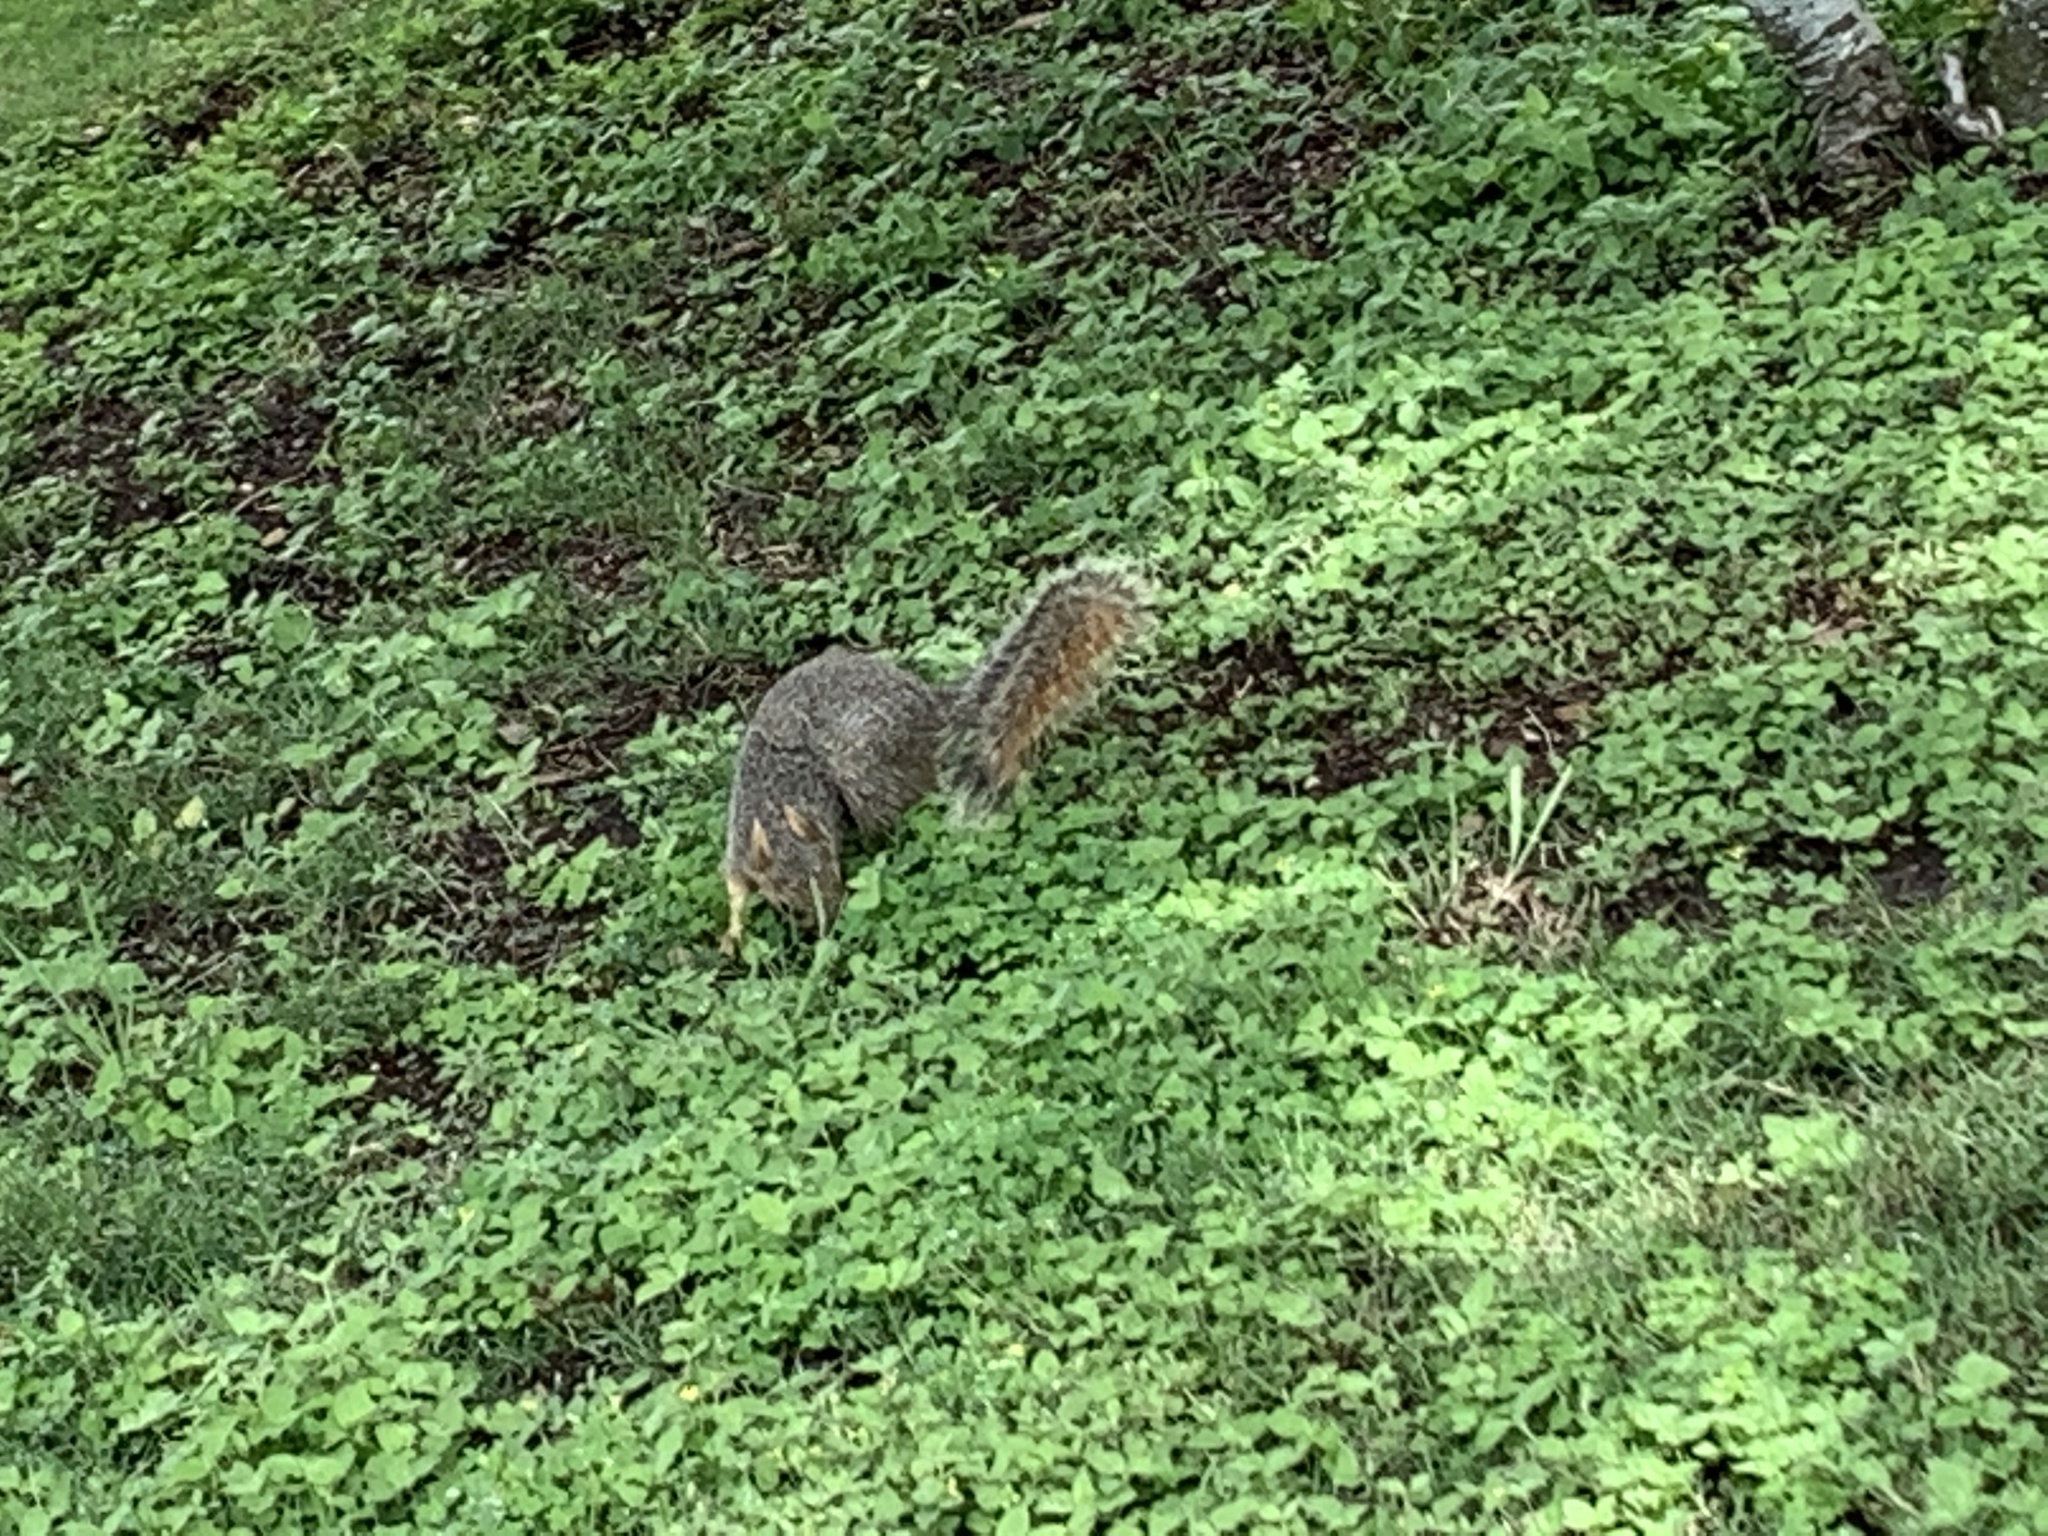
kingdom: Animalia
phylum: Chordata
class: Mammalia
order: Rodentia
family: Sciuridae
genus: Sciurus
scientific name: Sciurus niger
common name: Fox squirrel
